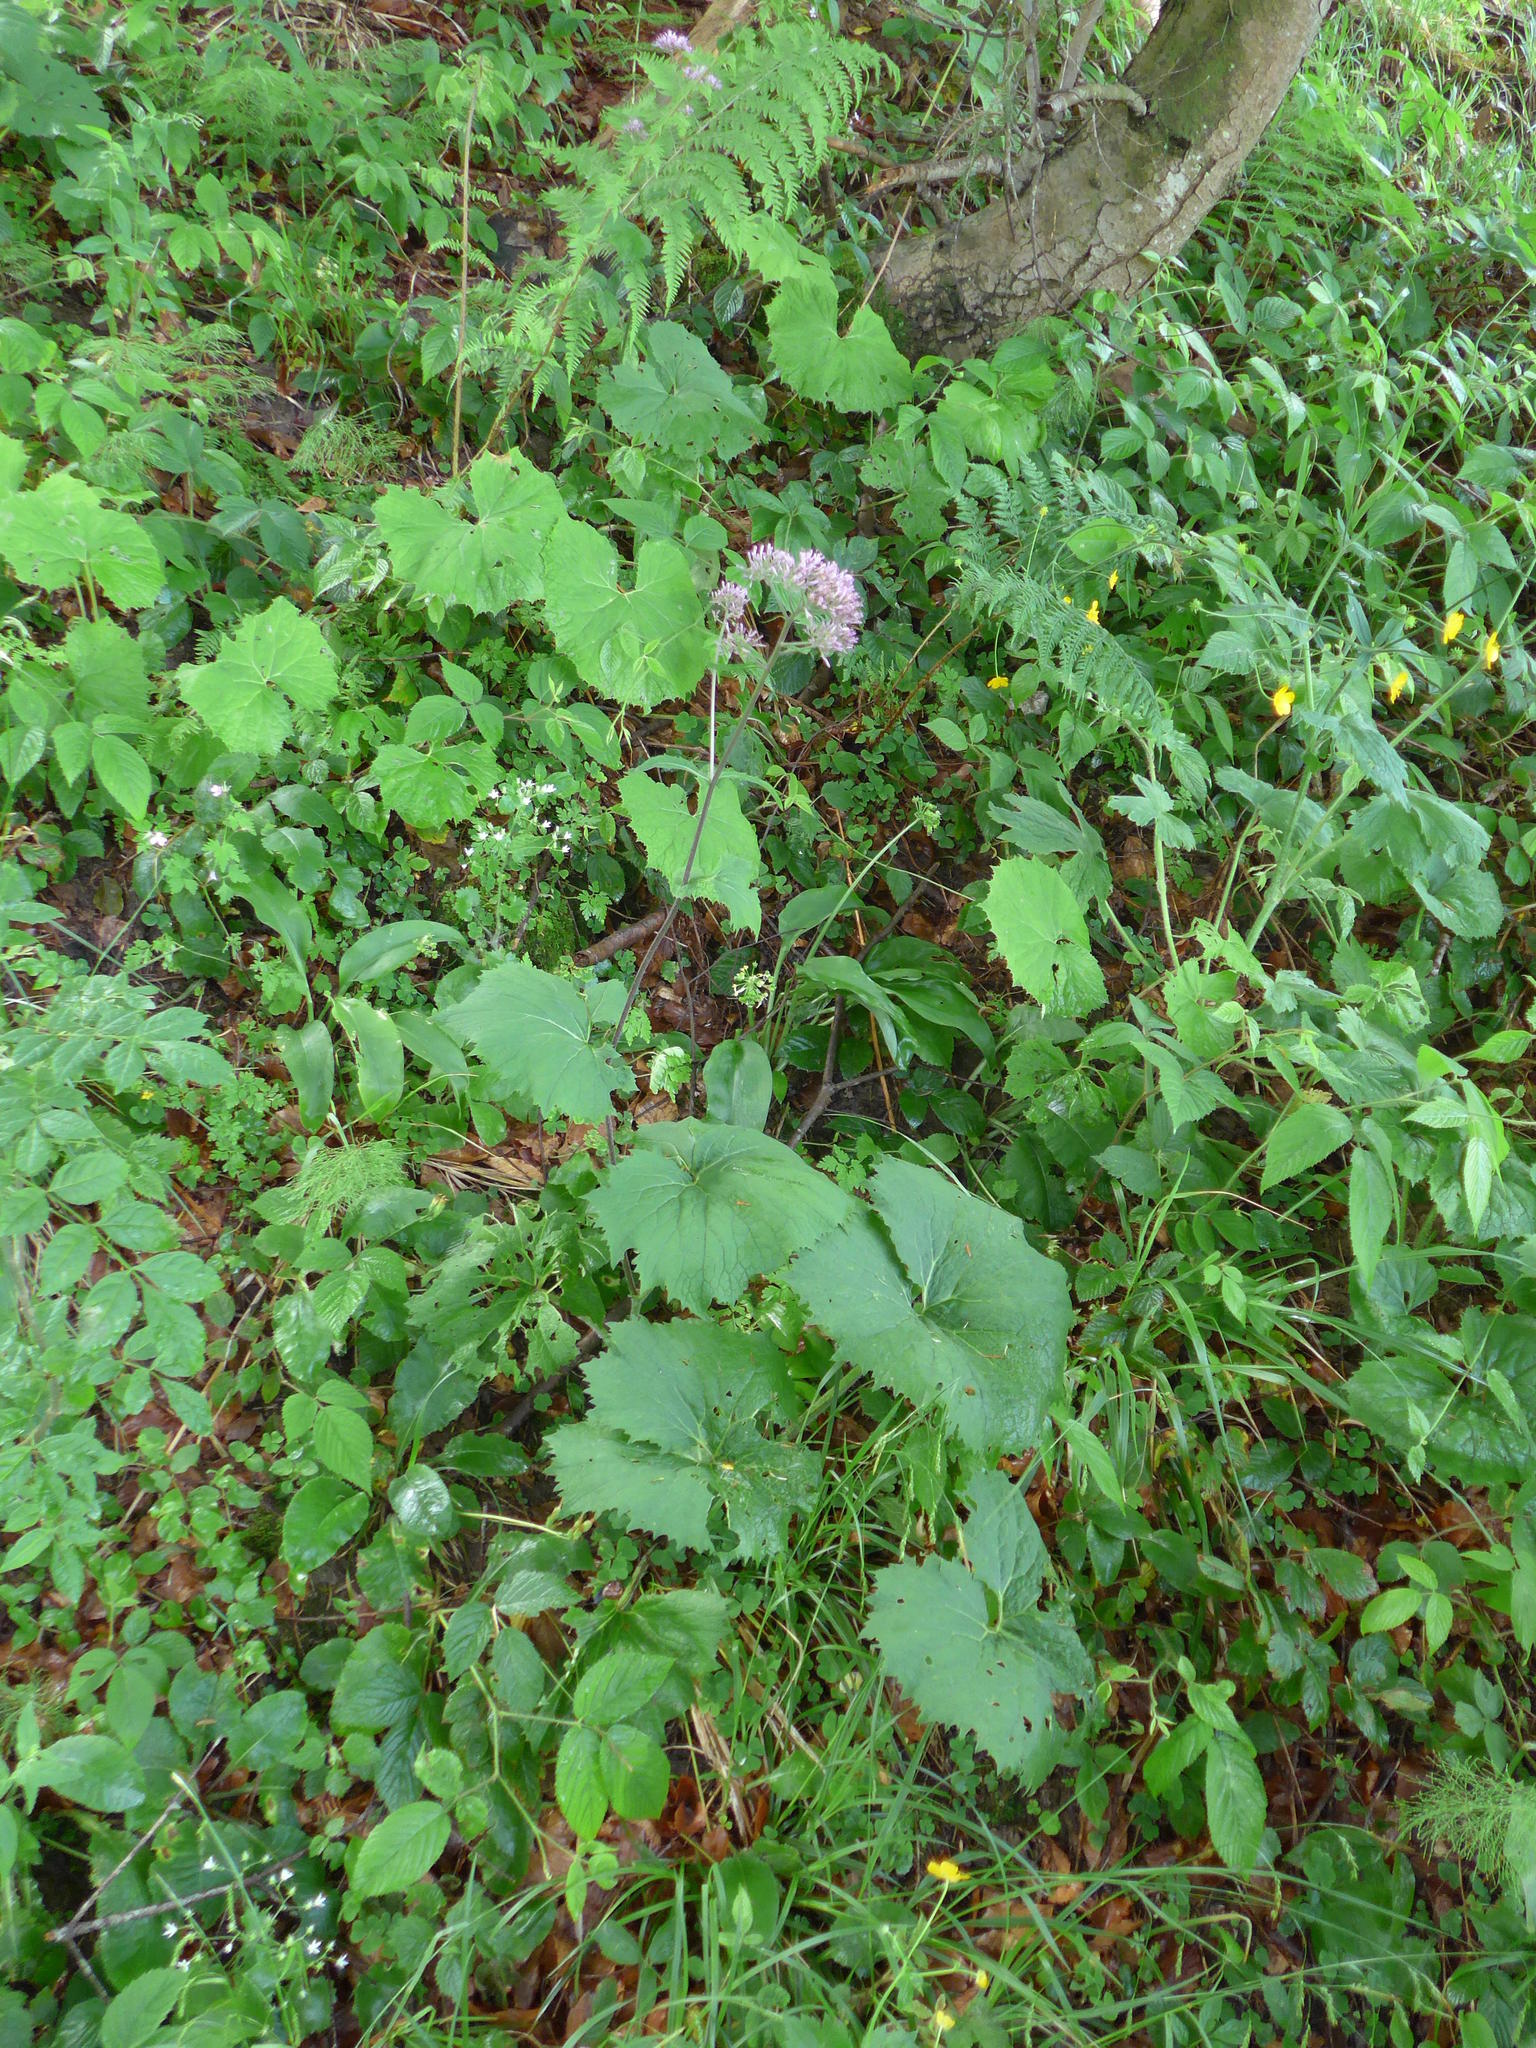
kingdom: Plantae
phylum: Tracheophyta
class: Magnoliopsida
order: Asterales
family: Asteraceae
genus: Adenostyles
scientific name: Adenostyles alliariae
